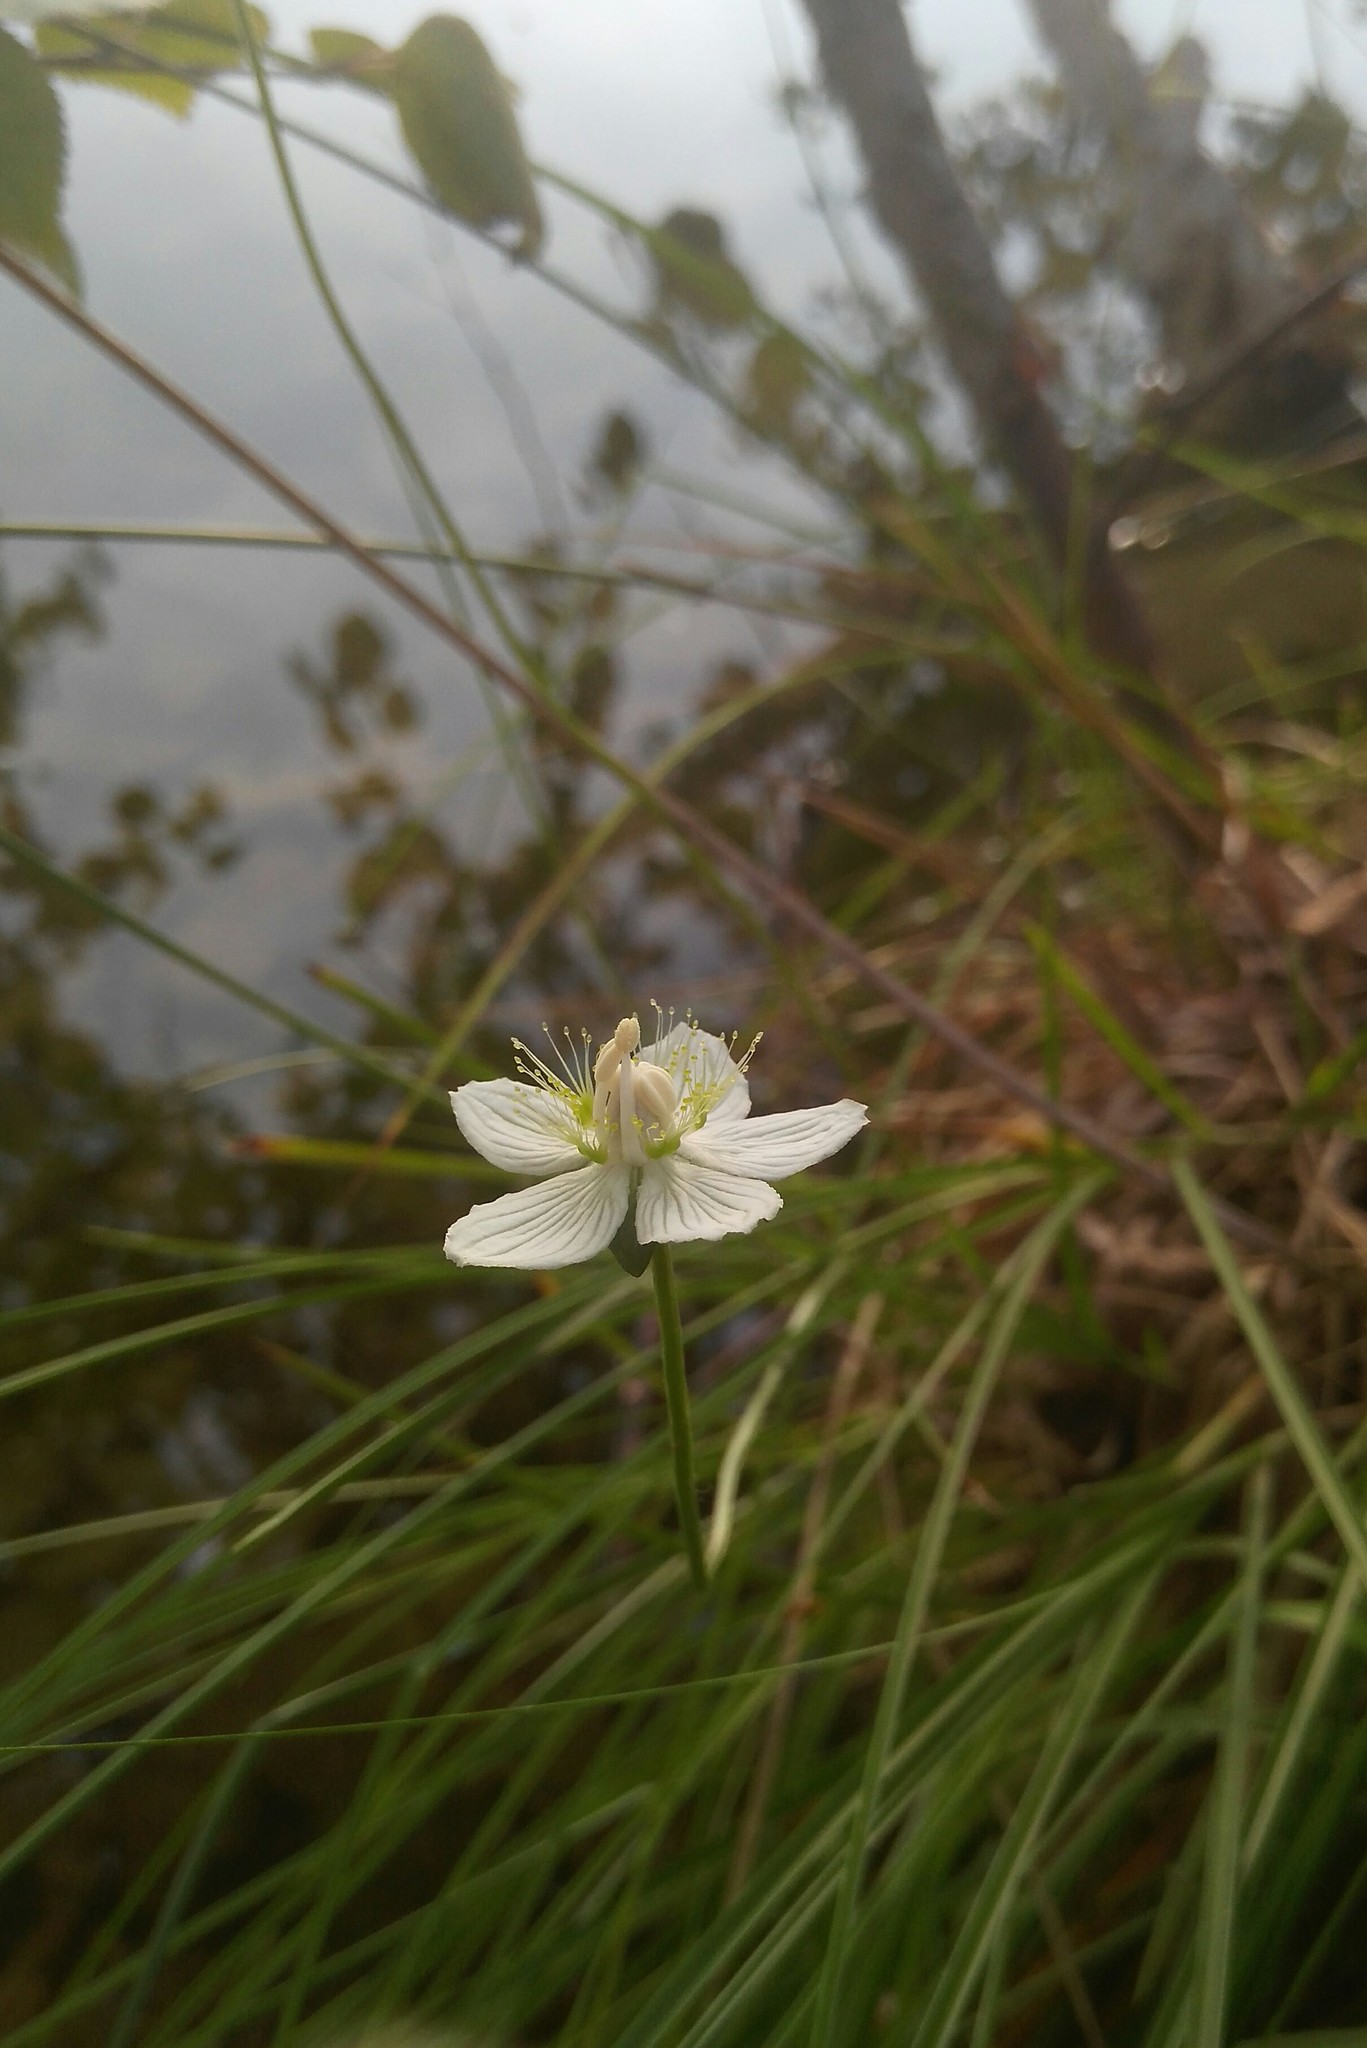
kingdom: Plantae
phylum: Tracheophyta
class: Magnoliopsida
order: Celastrales
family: Parnassiaceae
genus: Parnassia
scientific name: Parnassia palustris
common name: Grass-of-parnassus
